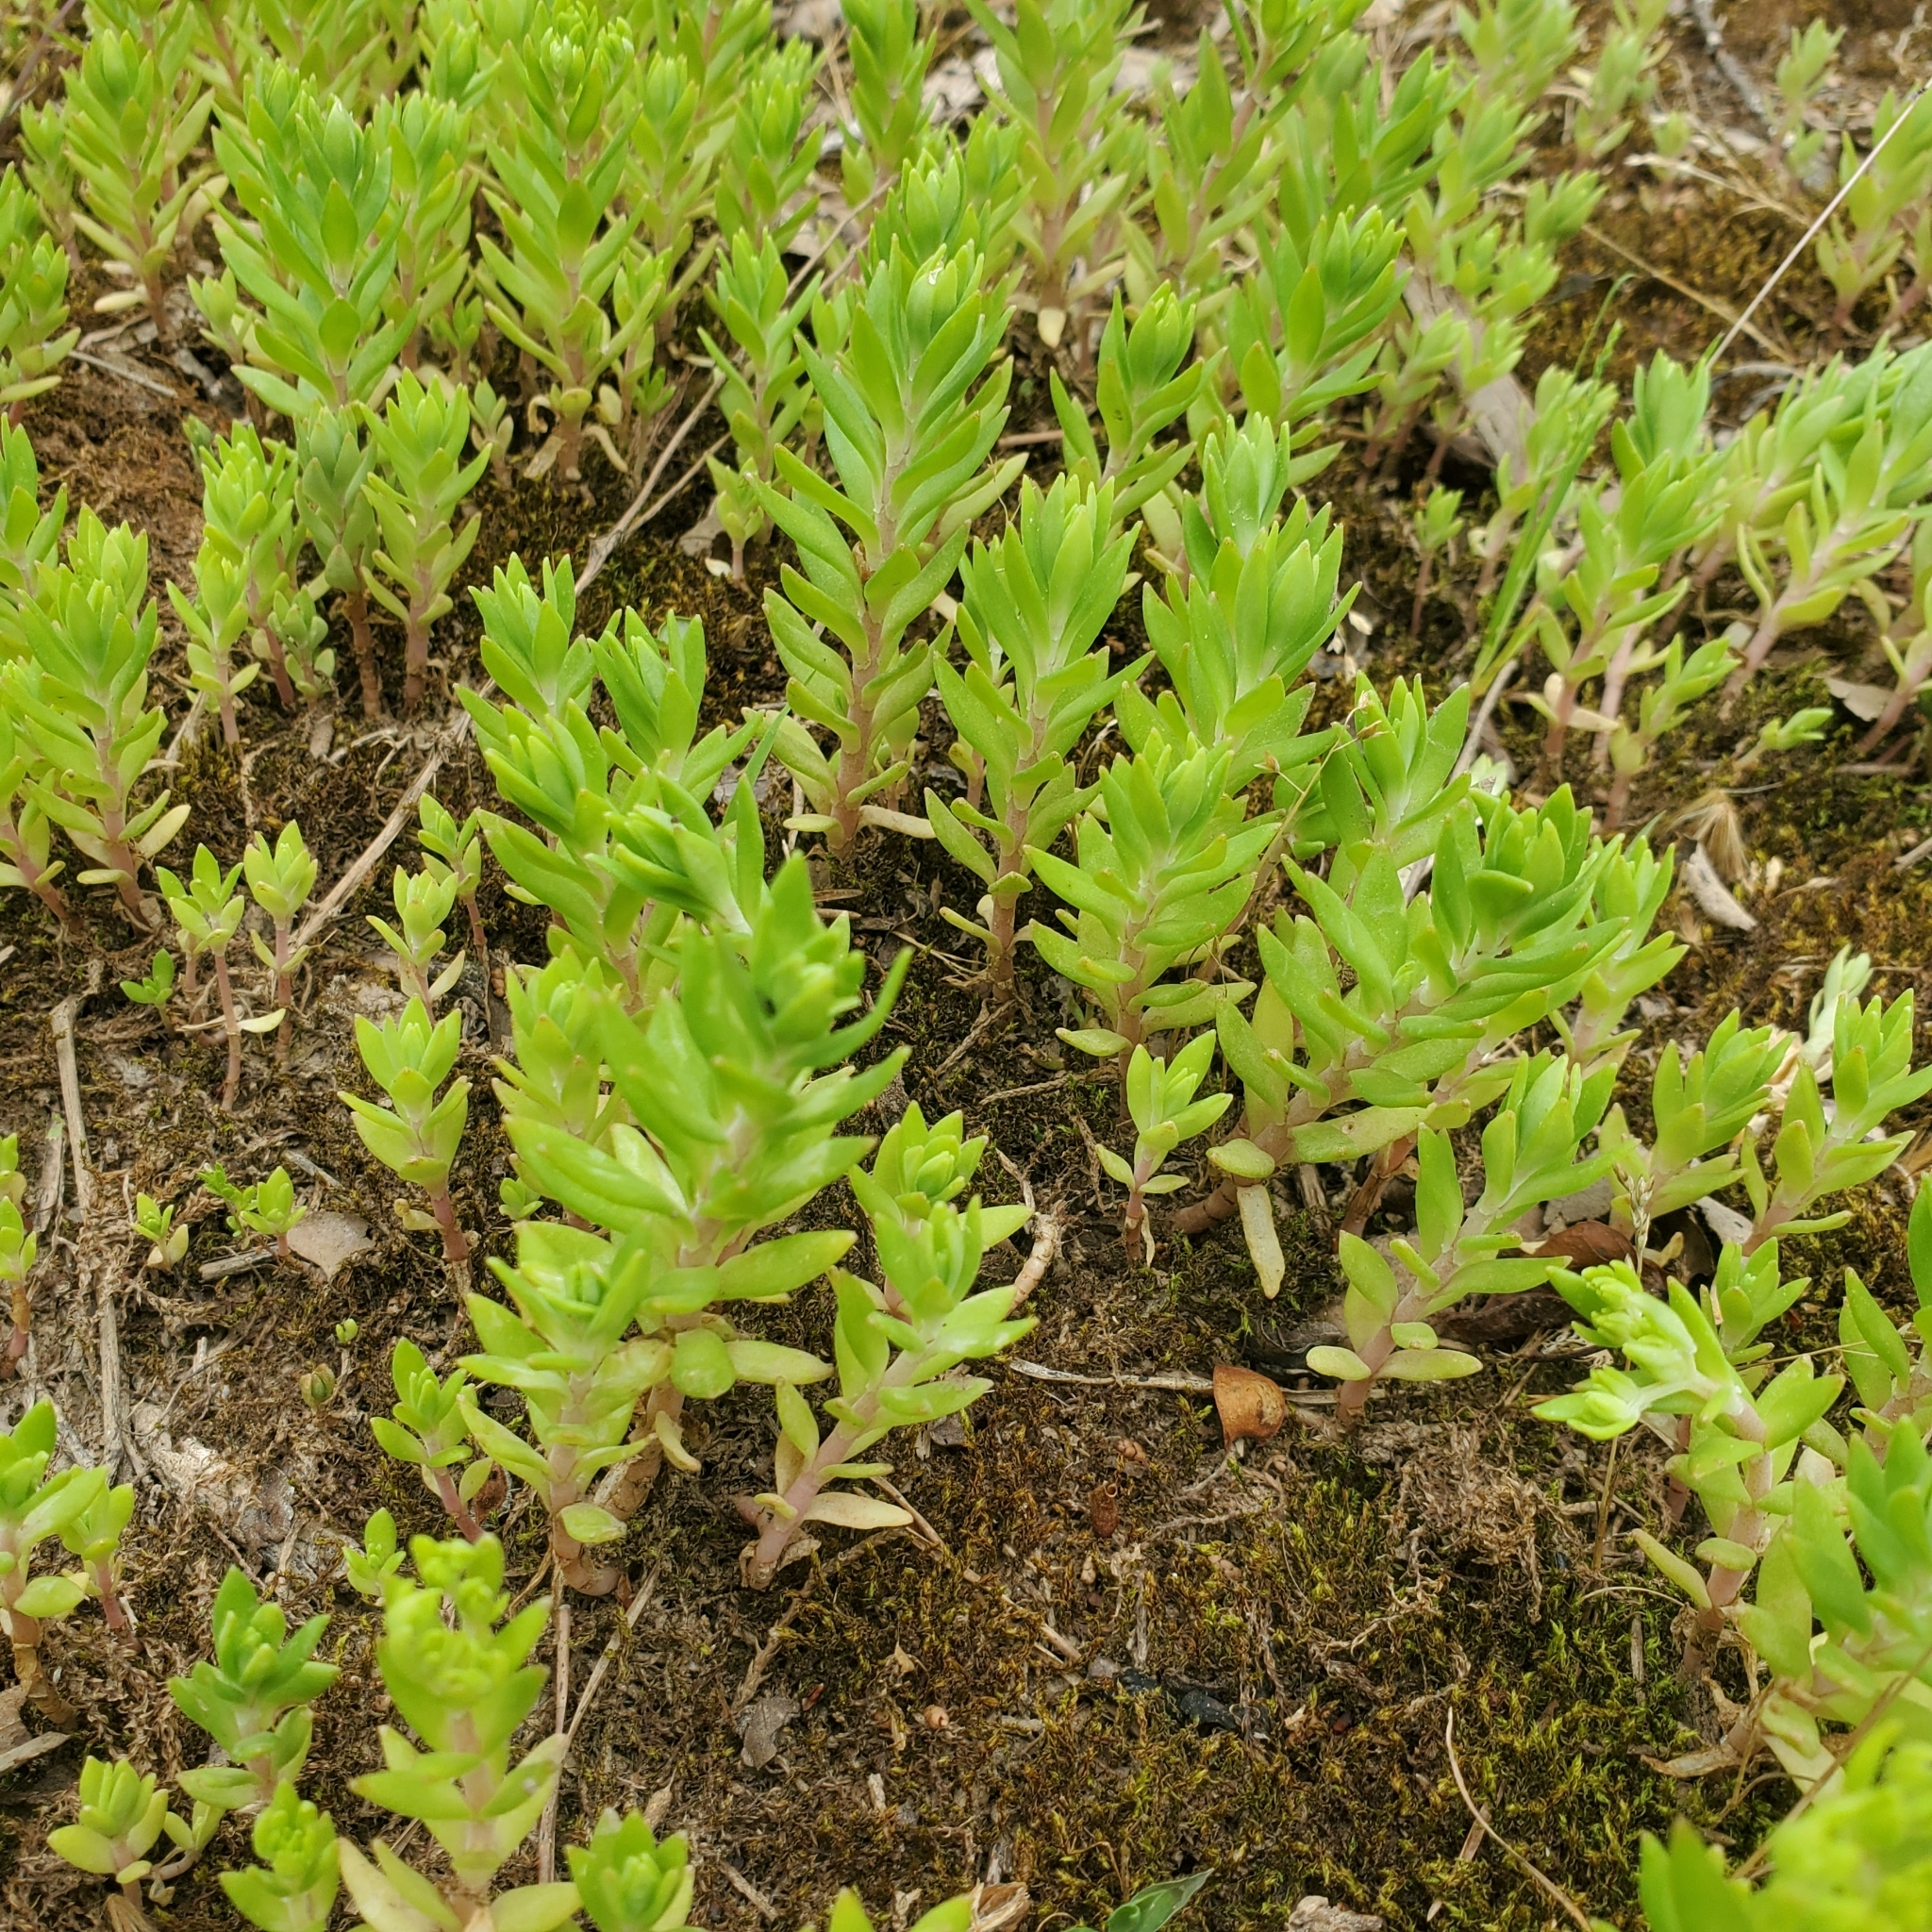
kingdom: Plantae
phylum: Tracheophyta
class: Magnoliopsida
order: Saxifragales
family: Crassulaceae
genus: Sedum
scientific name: Sedum sarmentosum
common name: Stringy stonecrop
